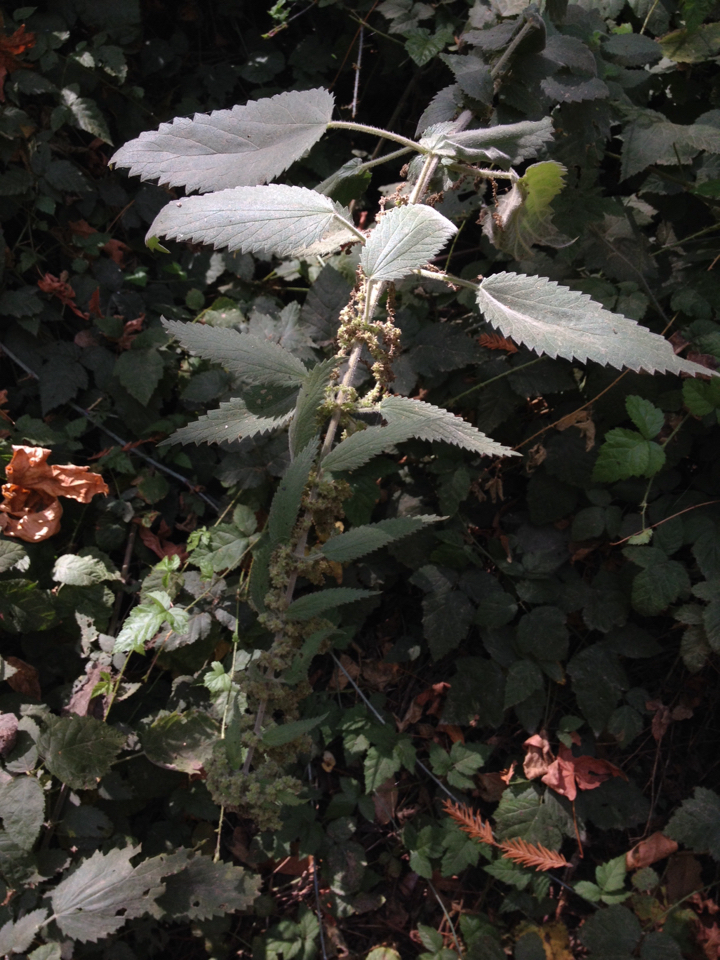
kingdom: Plantae
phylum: Tracheophyta
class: Magnoliopsida
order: Rosales
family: Urticaceae
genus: Urtica
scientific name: Urtica dioica
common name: Common nettle
